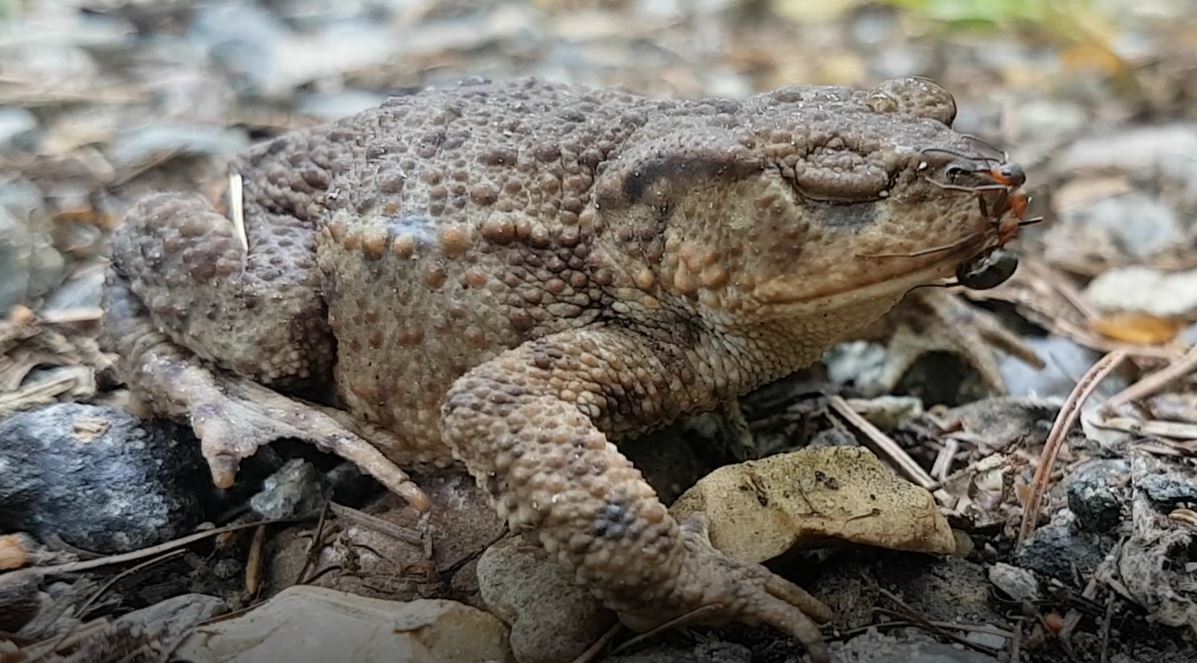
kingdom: Animalia
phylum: Chordata
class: Amphibia
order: Anura
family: Bufonidae
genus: Bufo
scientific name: Bufo bufo
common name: Common toad
